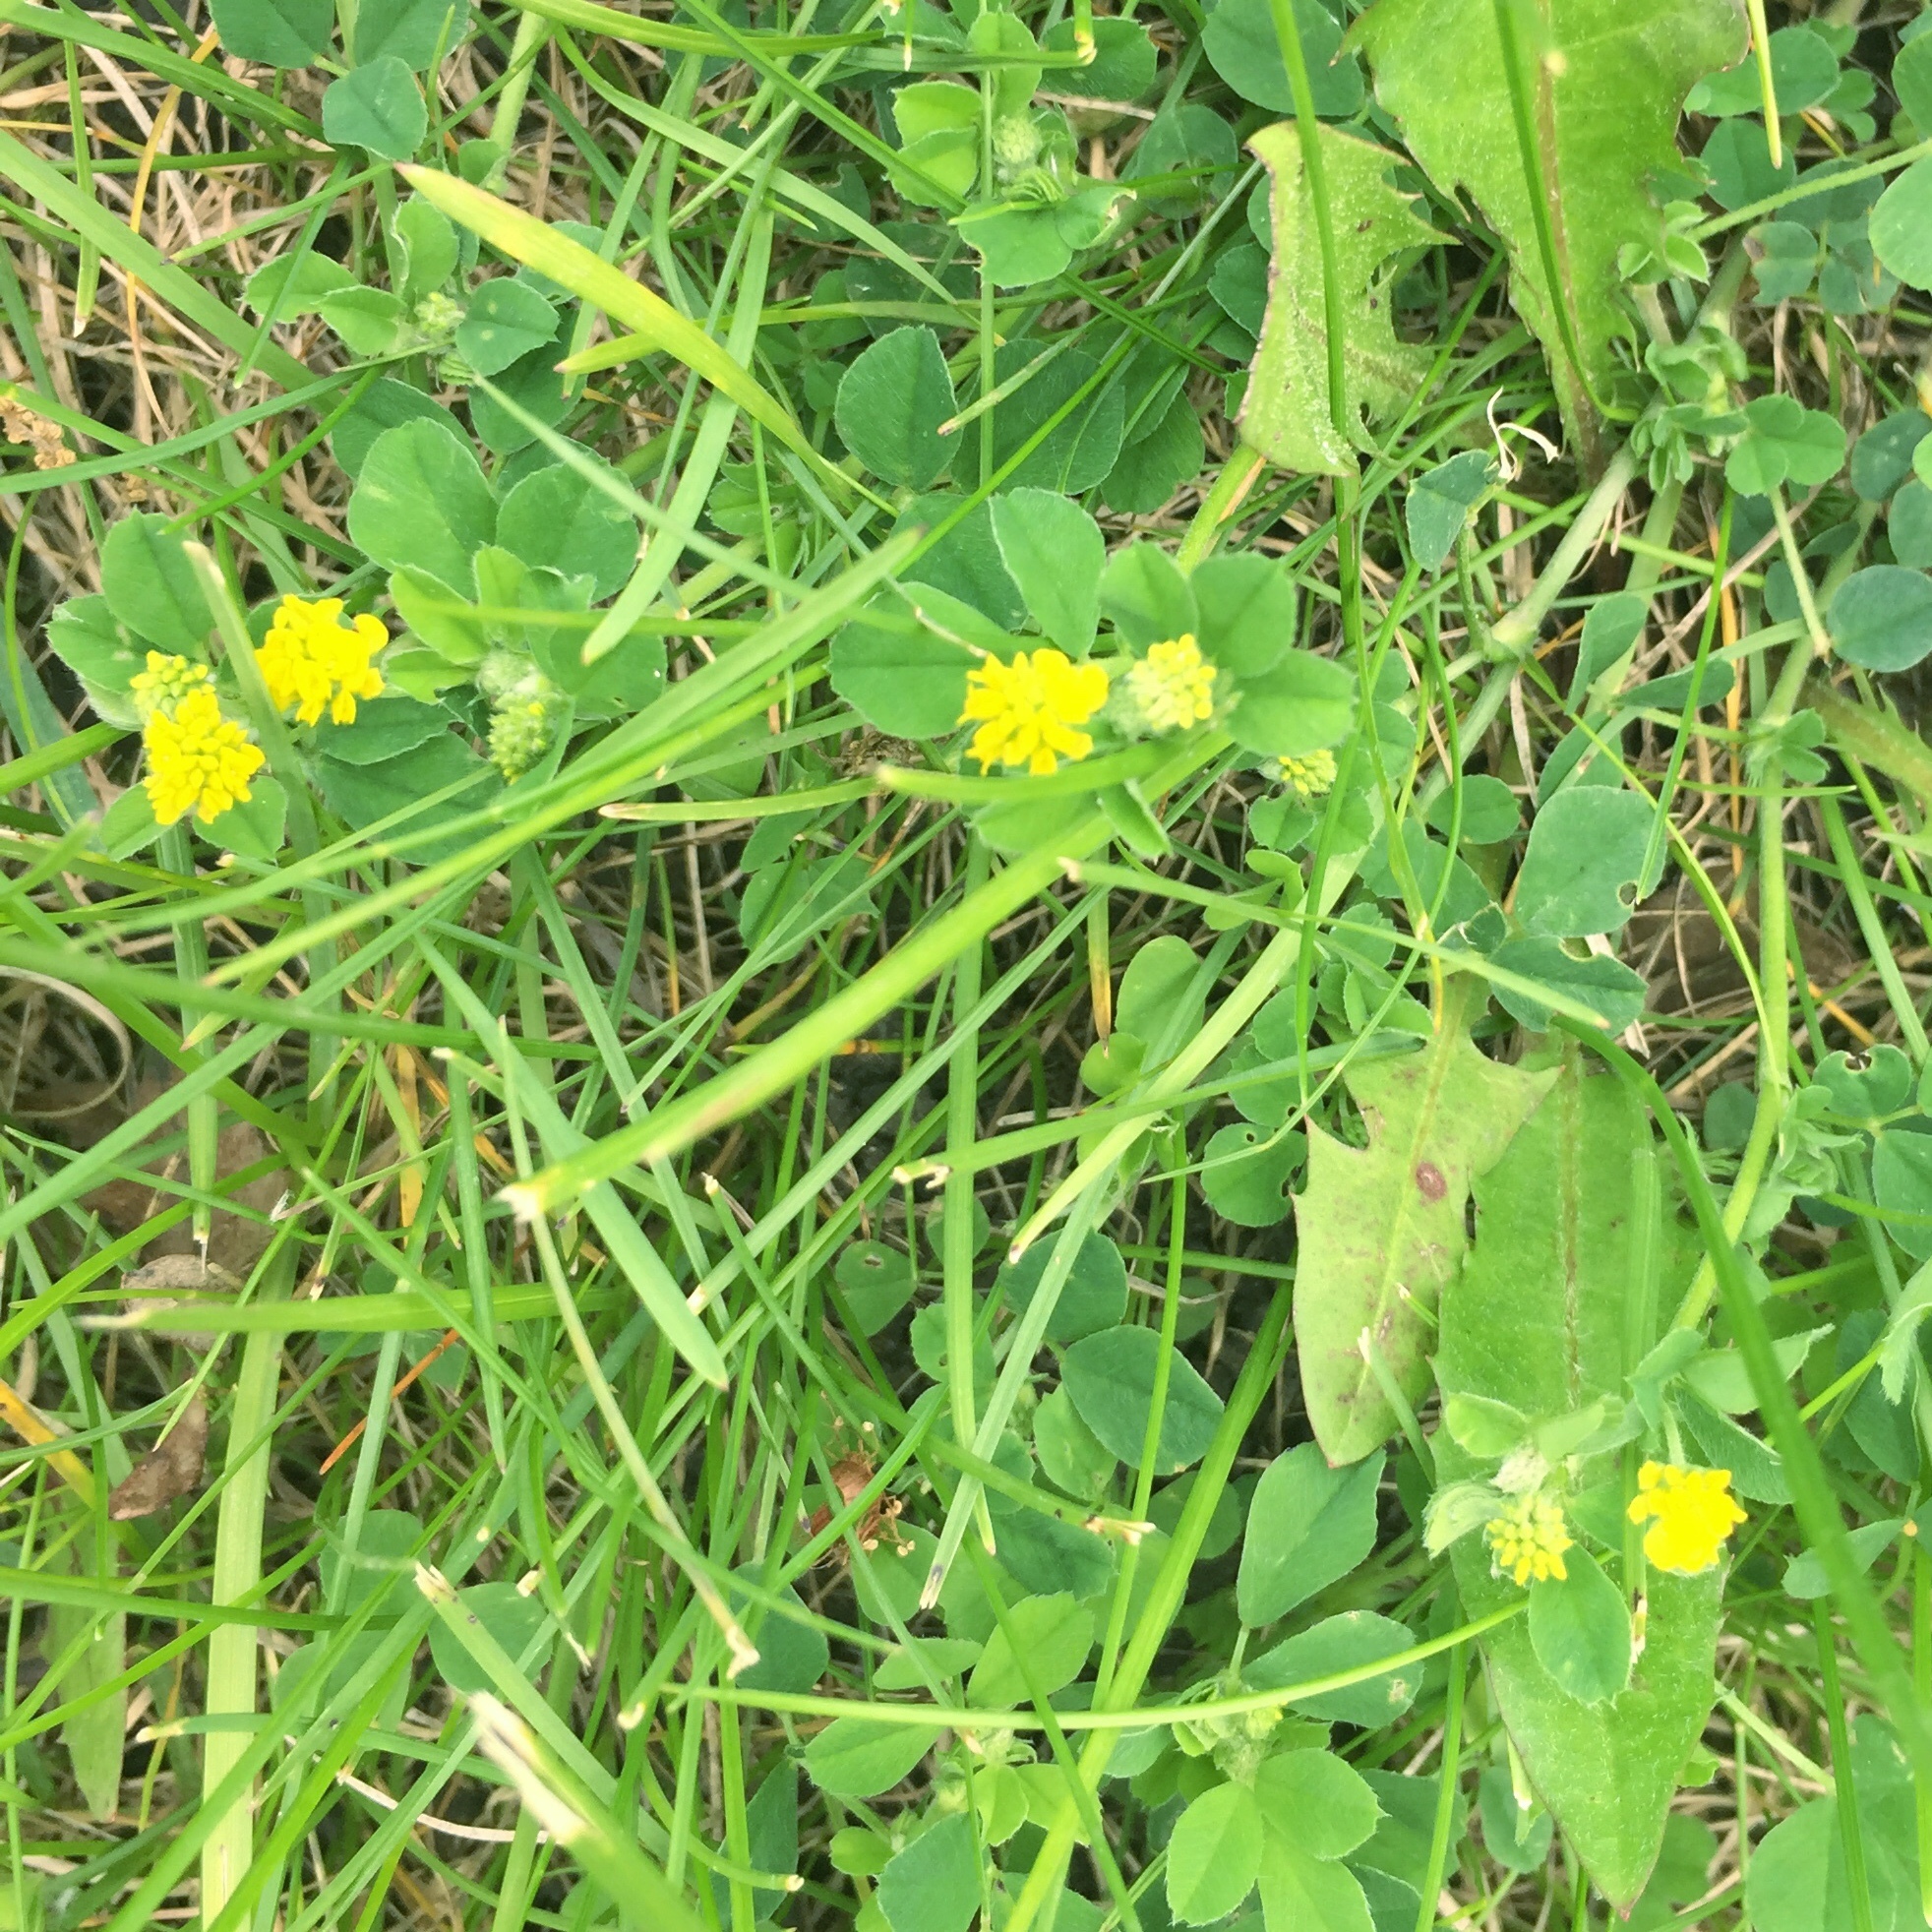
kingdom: Plantae
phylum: Tracheophyta
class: Magnoliopsida
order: Fabales
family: Fabaceae
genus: Medicago
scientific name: Medicago lupulina
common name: Black medick
